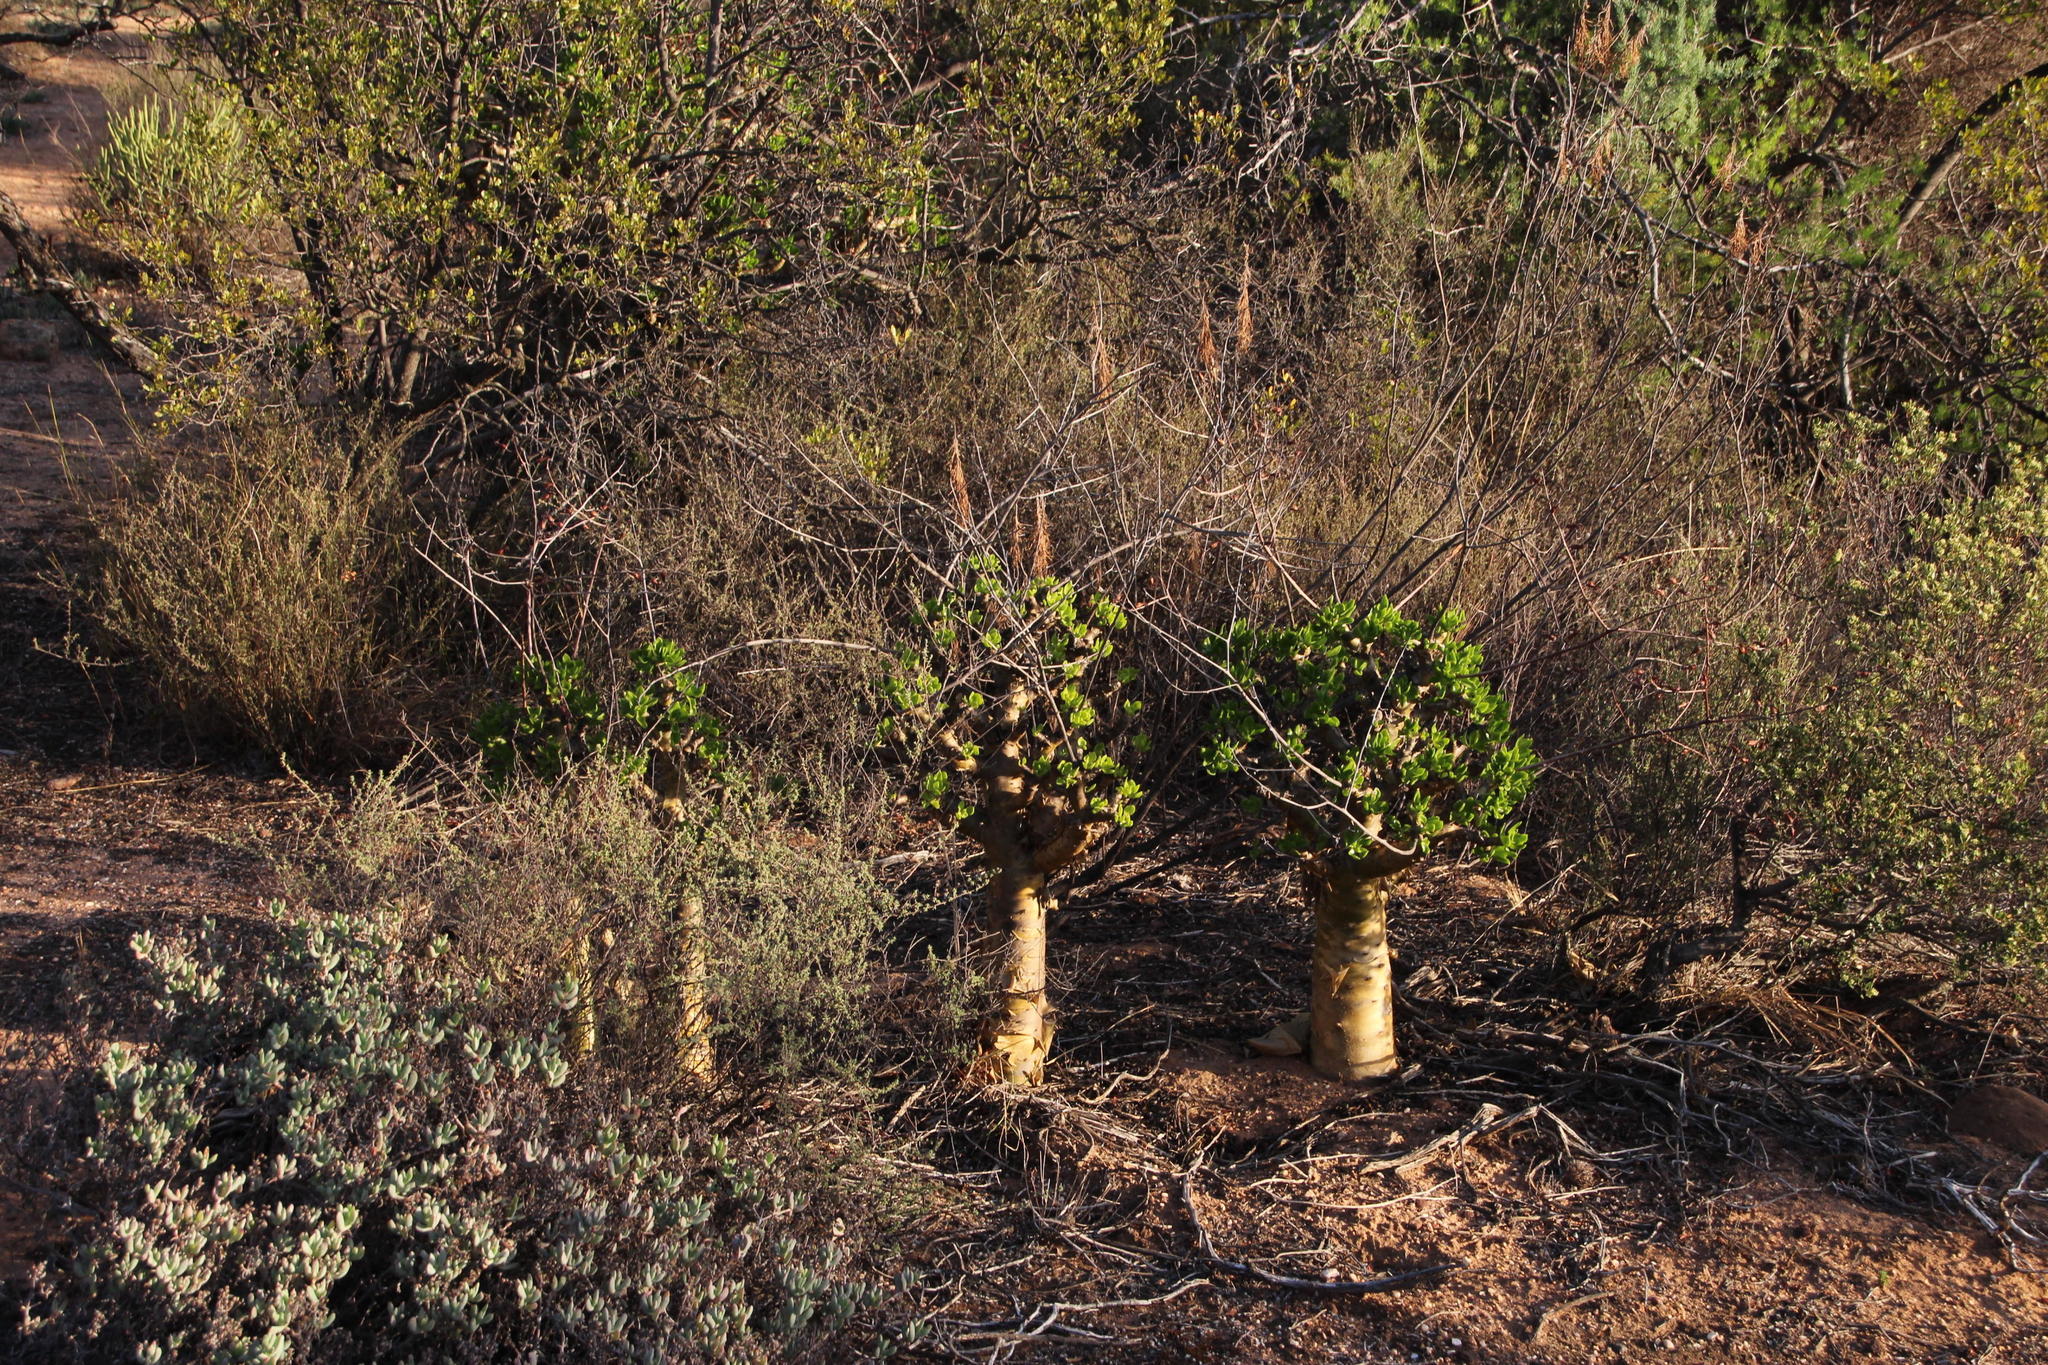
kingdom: Plantae
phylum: Tracheophyta
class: Magnoliopsida
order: Saxifragales
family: Crassulaceae
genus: Tylecodon
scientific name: Tylecodon paniculatus
